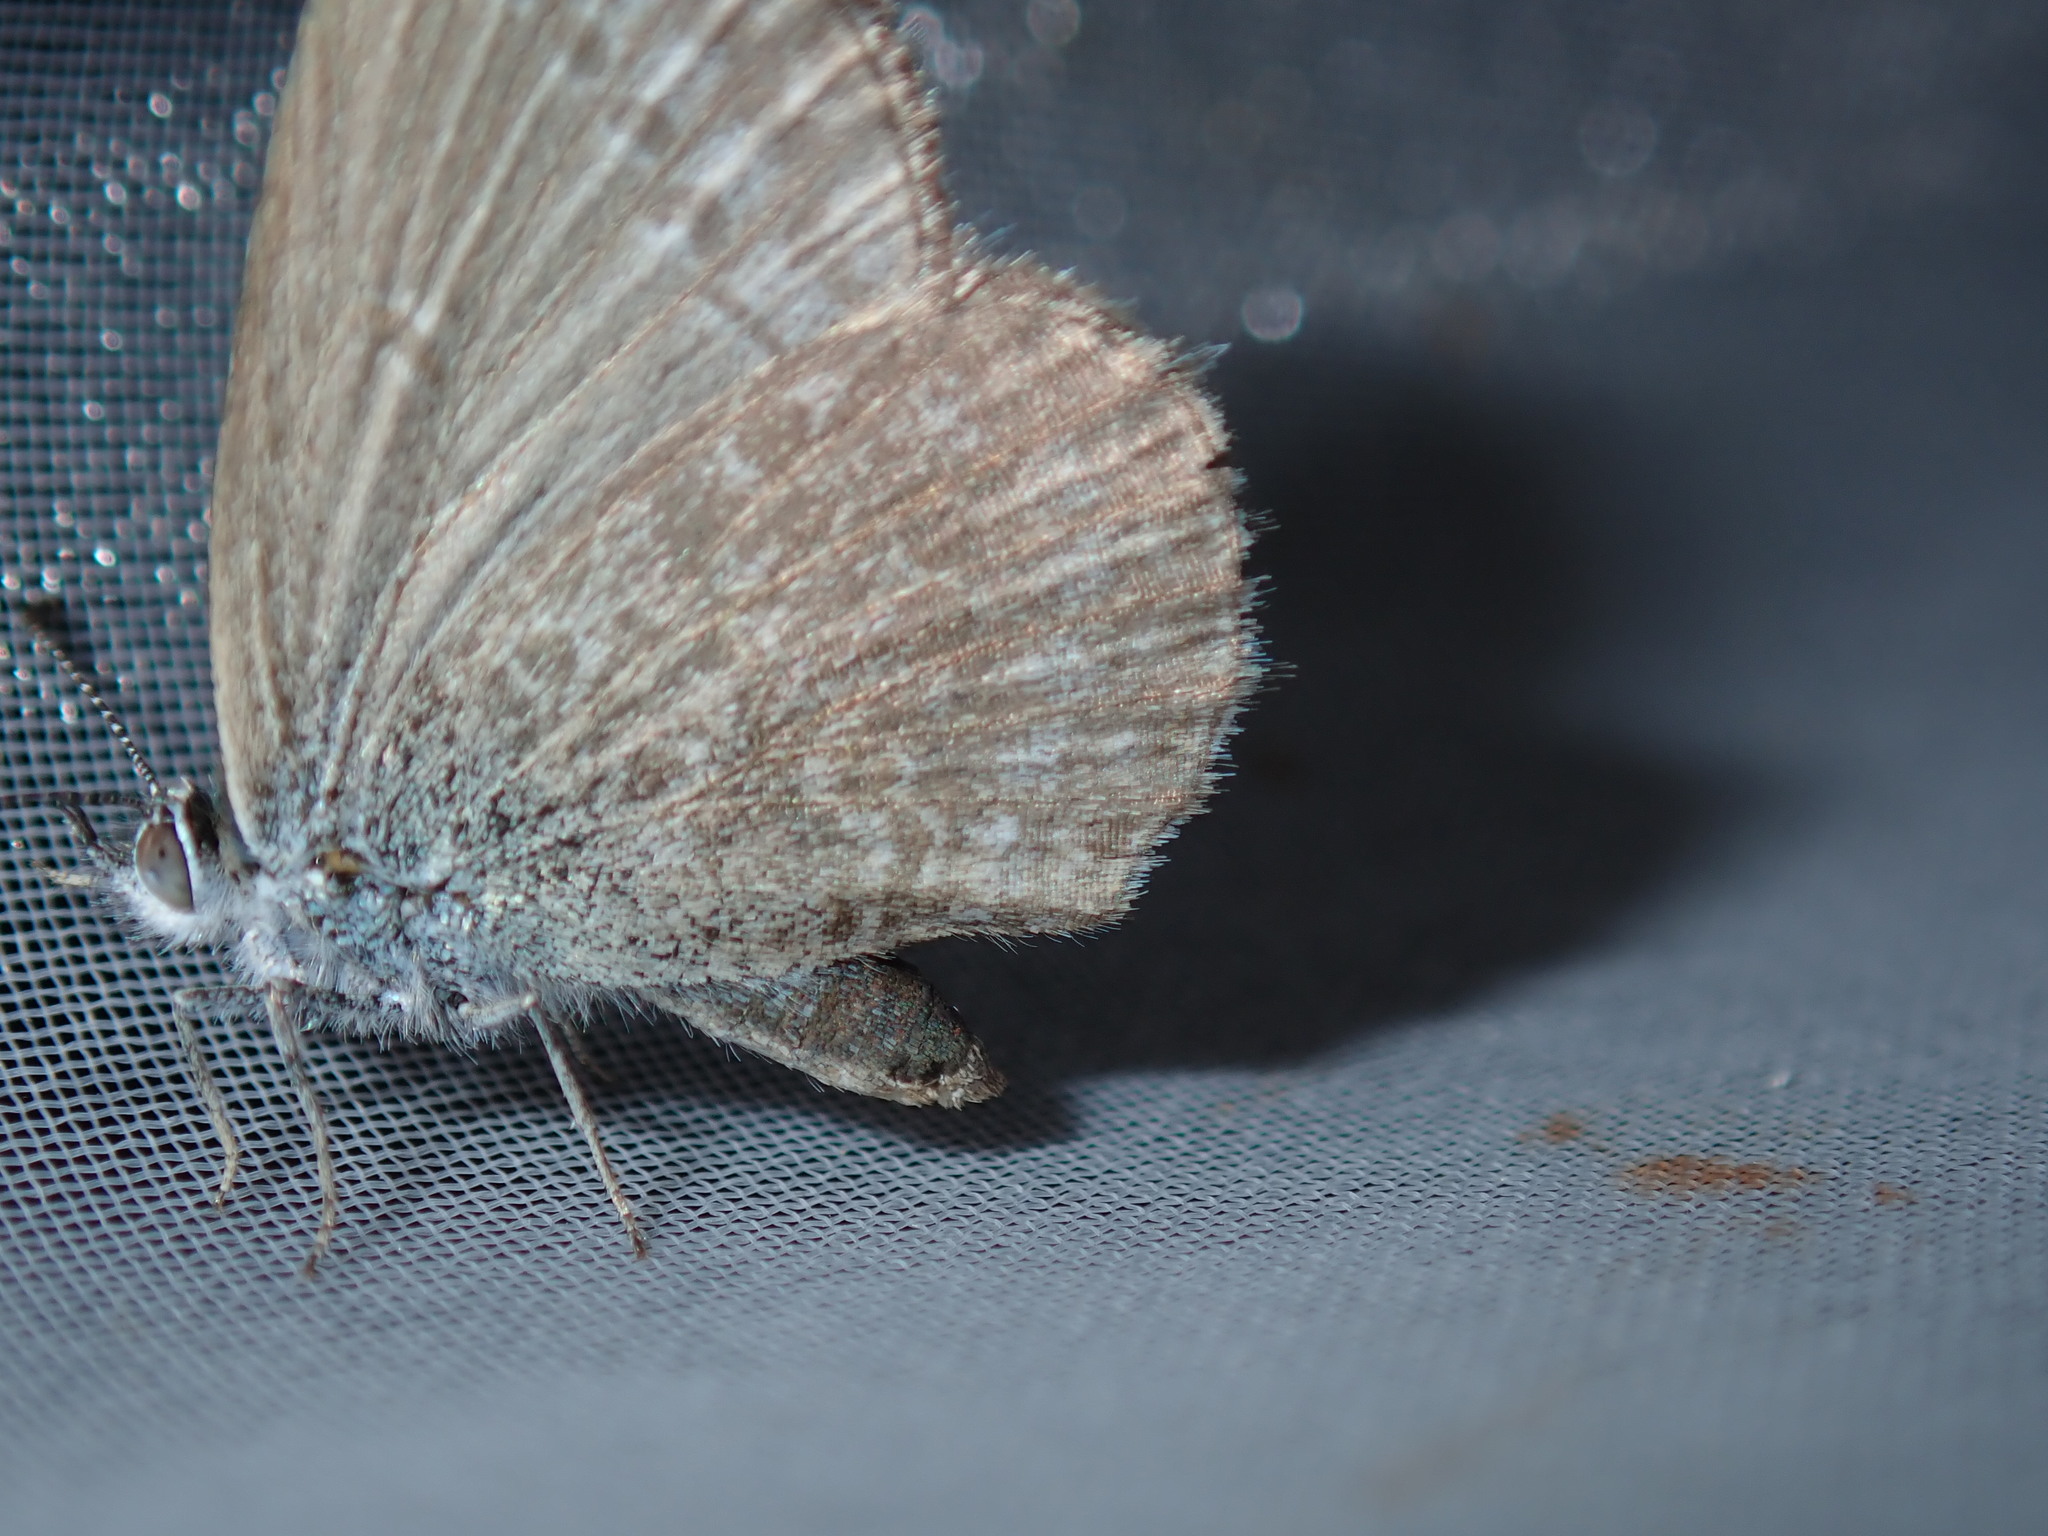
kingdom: Animalia
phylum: Arthropoda
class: Insecta
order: Lepidoptera
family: Lycaenidae
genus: Zizina
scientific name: Zizina labradus
